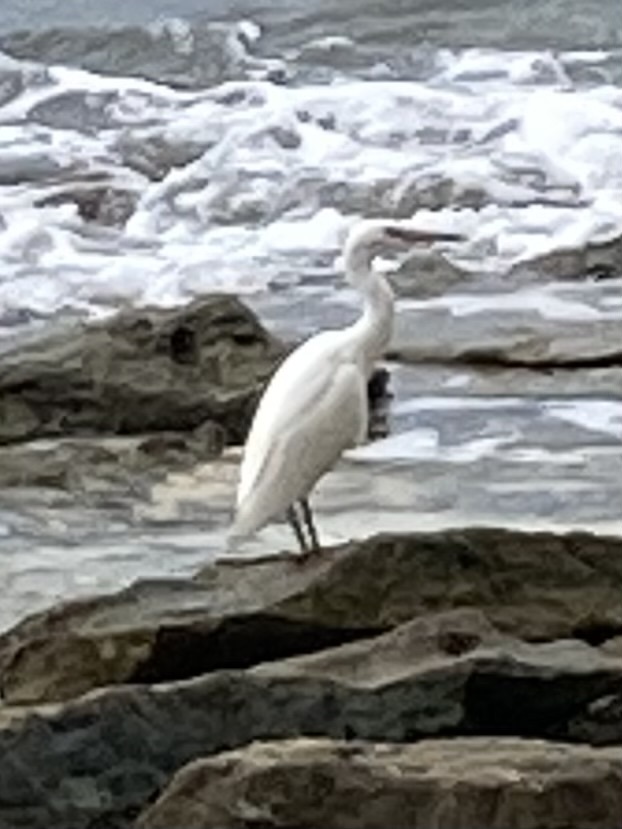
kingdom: Animalia
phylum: Chordata
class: Aves
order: Pelecaniformes
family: Ardeidae
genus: Egretta
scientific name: Egretta sacra
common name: Pacific reef heron
